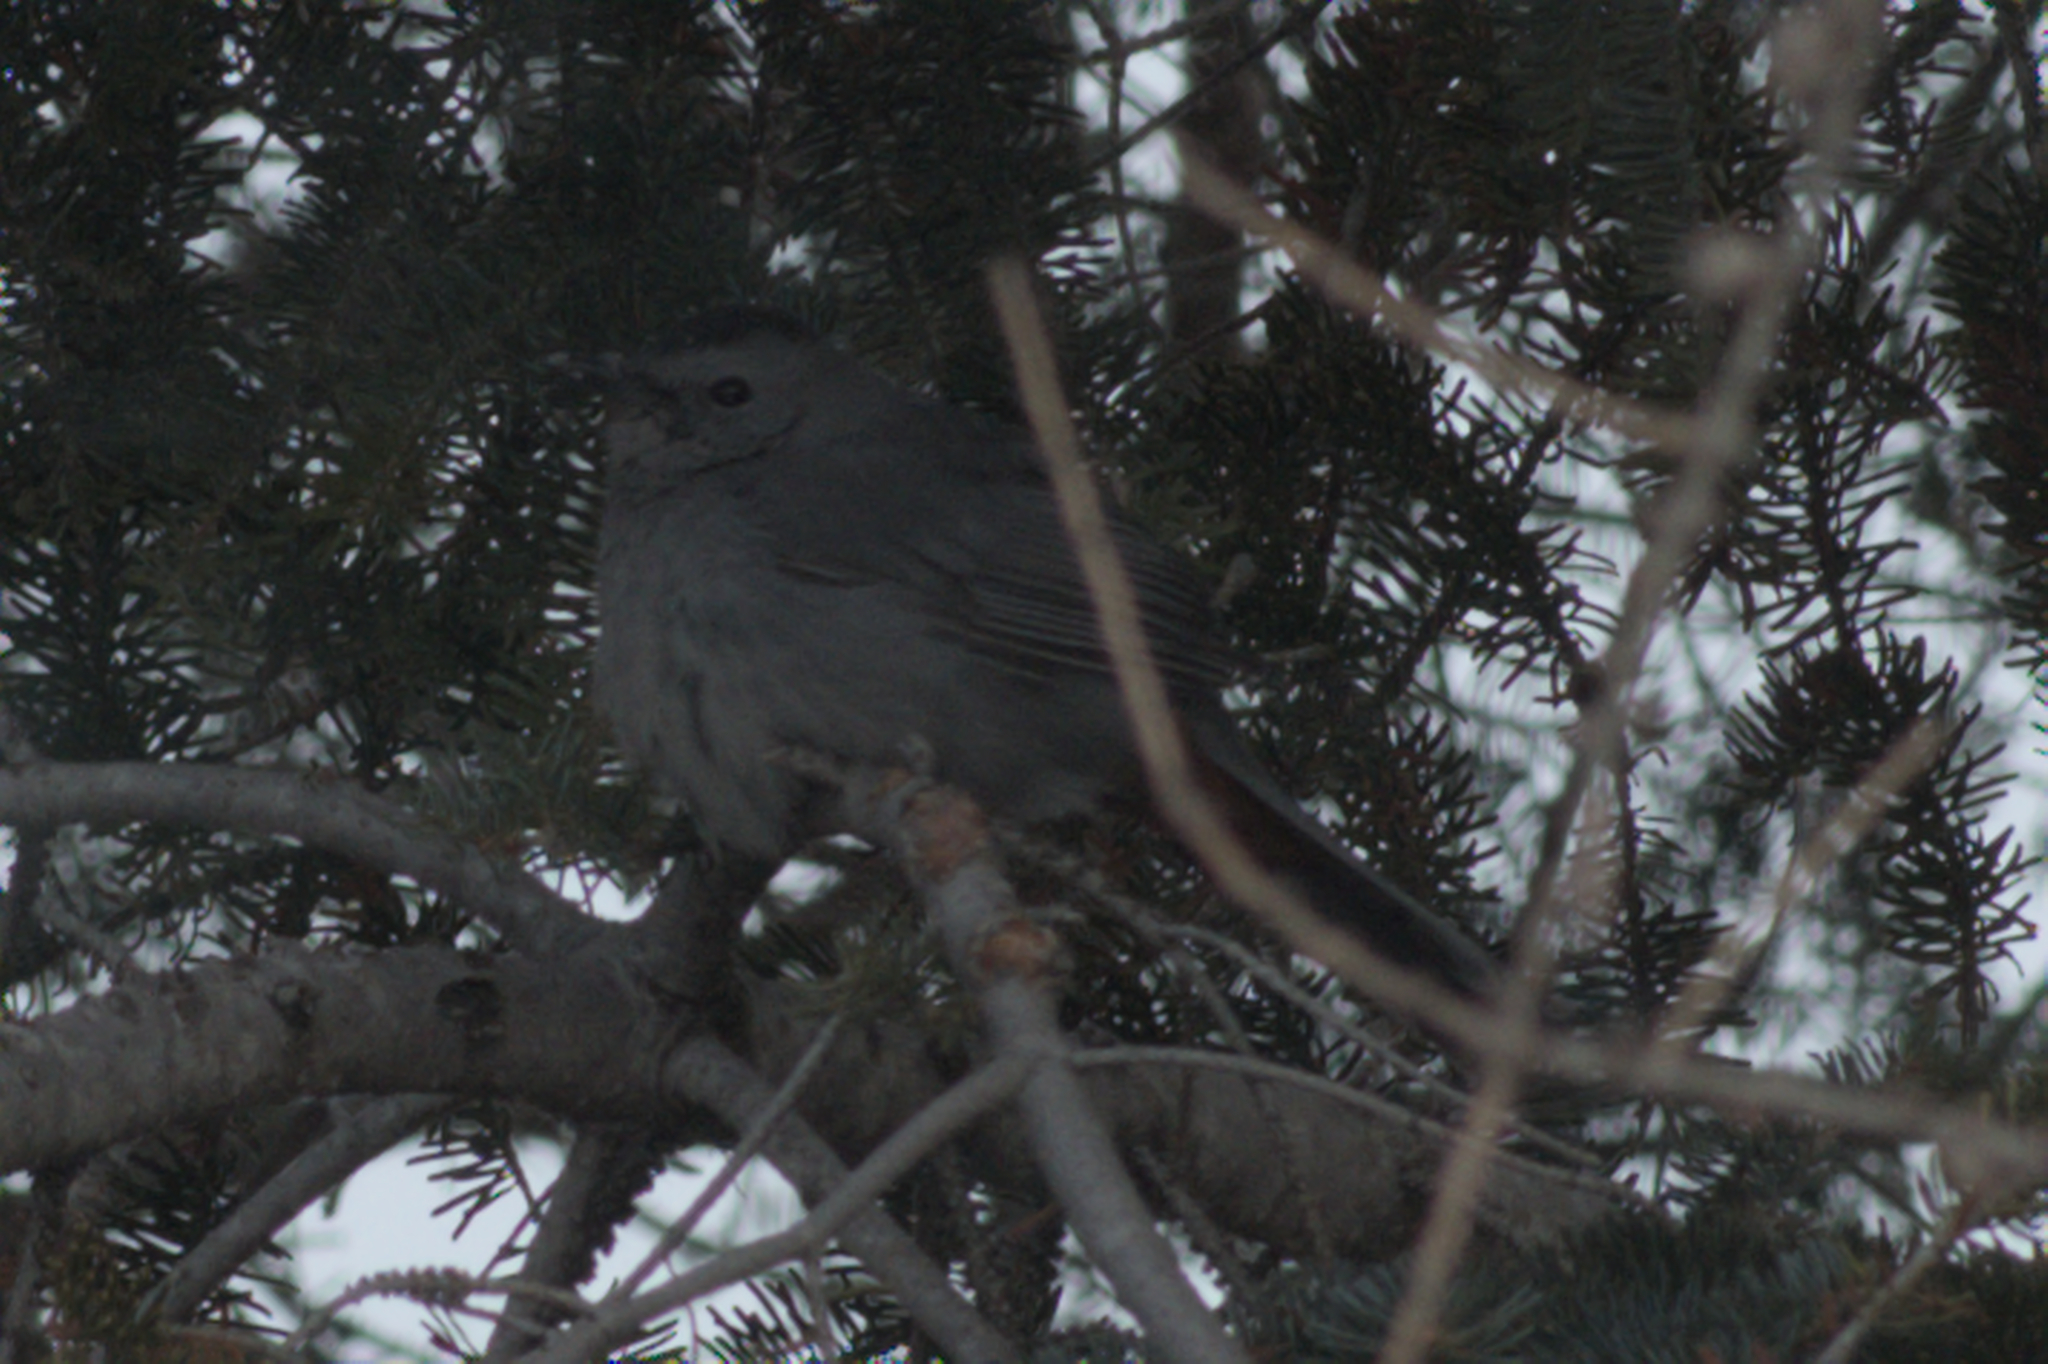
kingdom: Animalia
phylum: Chordata
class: Aves
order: Passeriformes
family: Mimidae
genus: Dumetella
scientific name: Dumetella carolinensis
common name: Gray catbird
